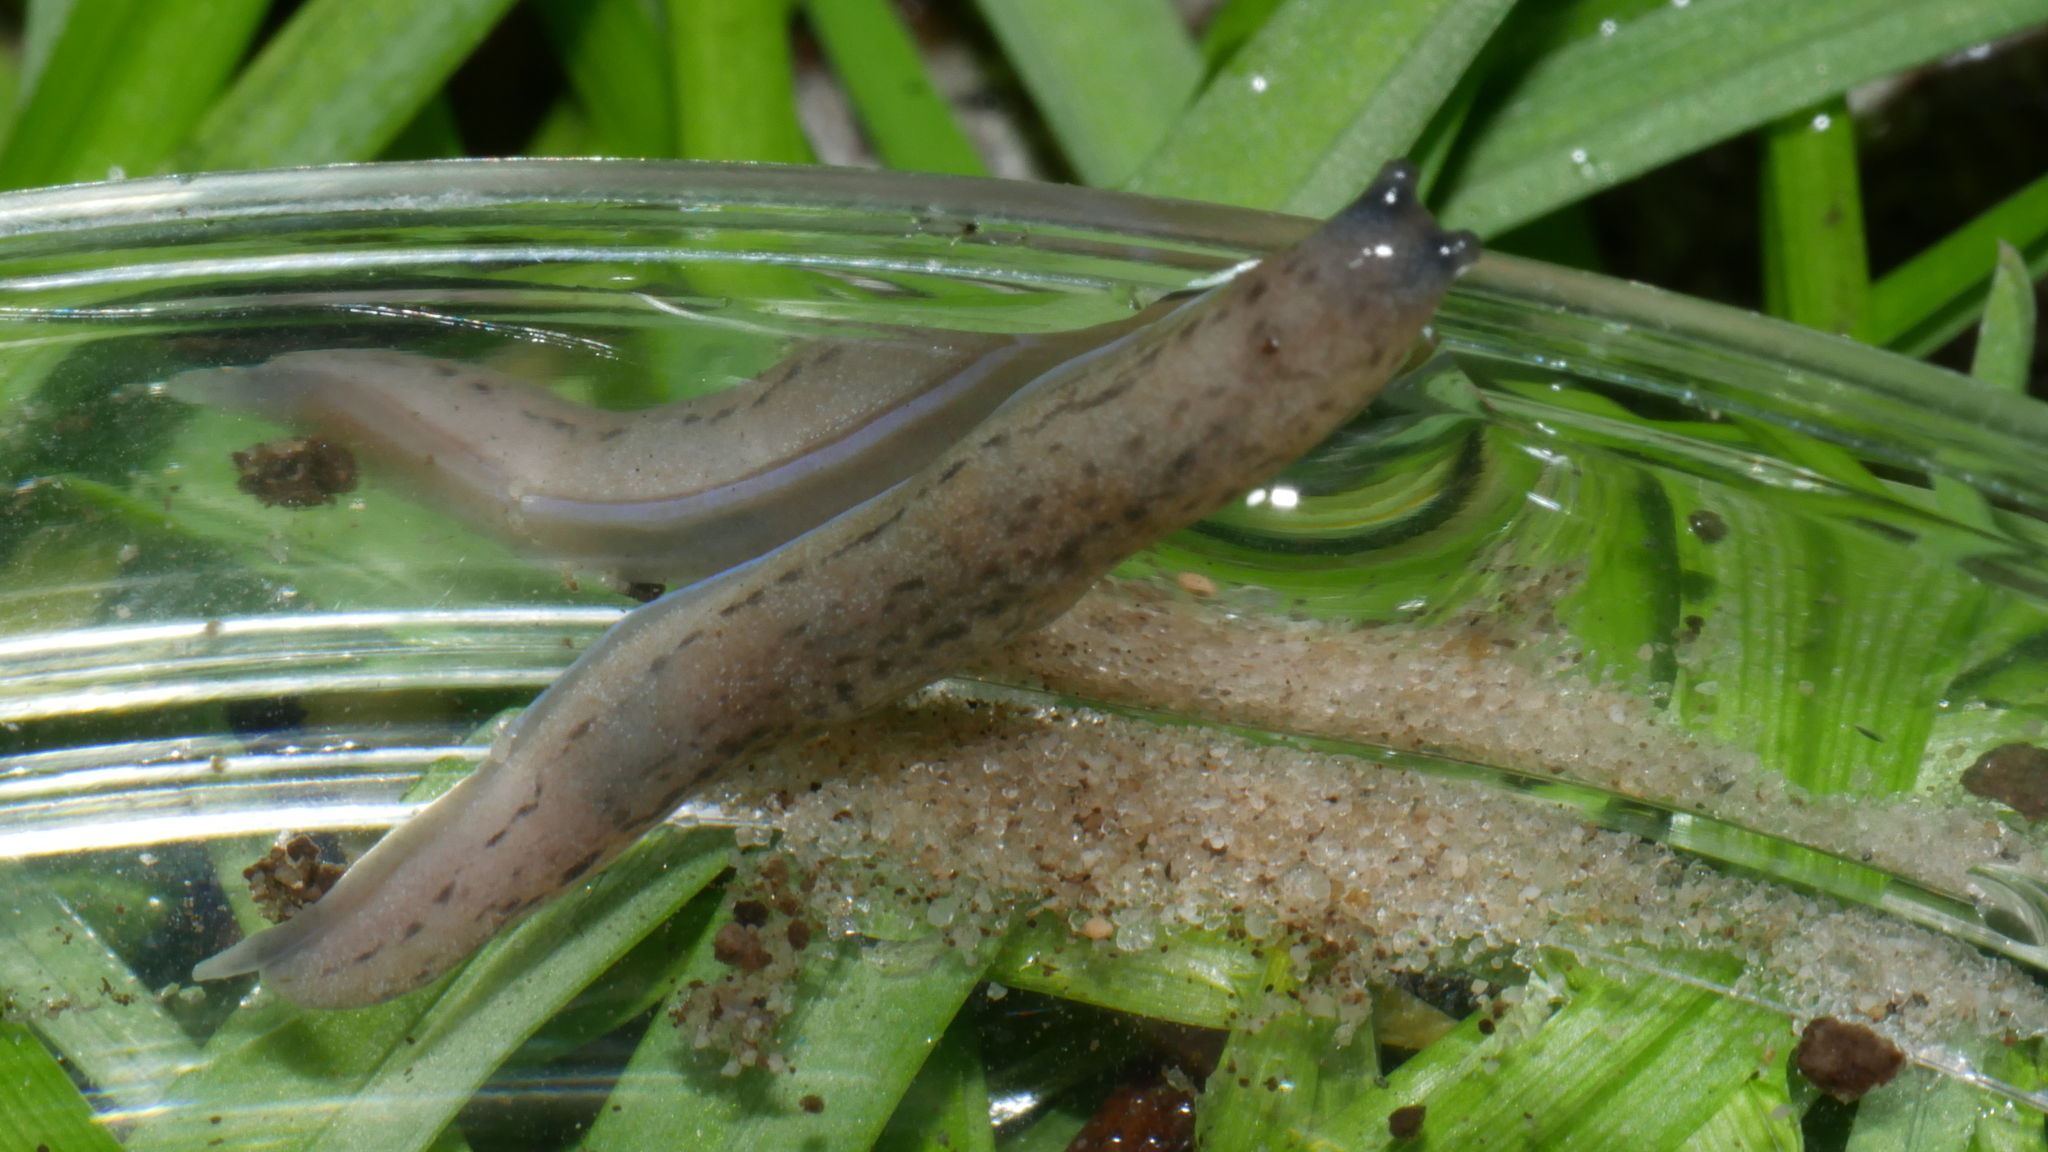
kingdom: Animalia
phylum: Mollusca
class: Gastropoda
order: Stylommatophora
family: Philomycidae
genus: Pallifera
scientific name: Pallifera
